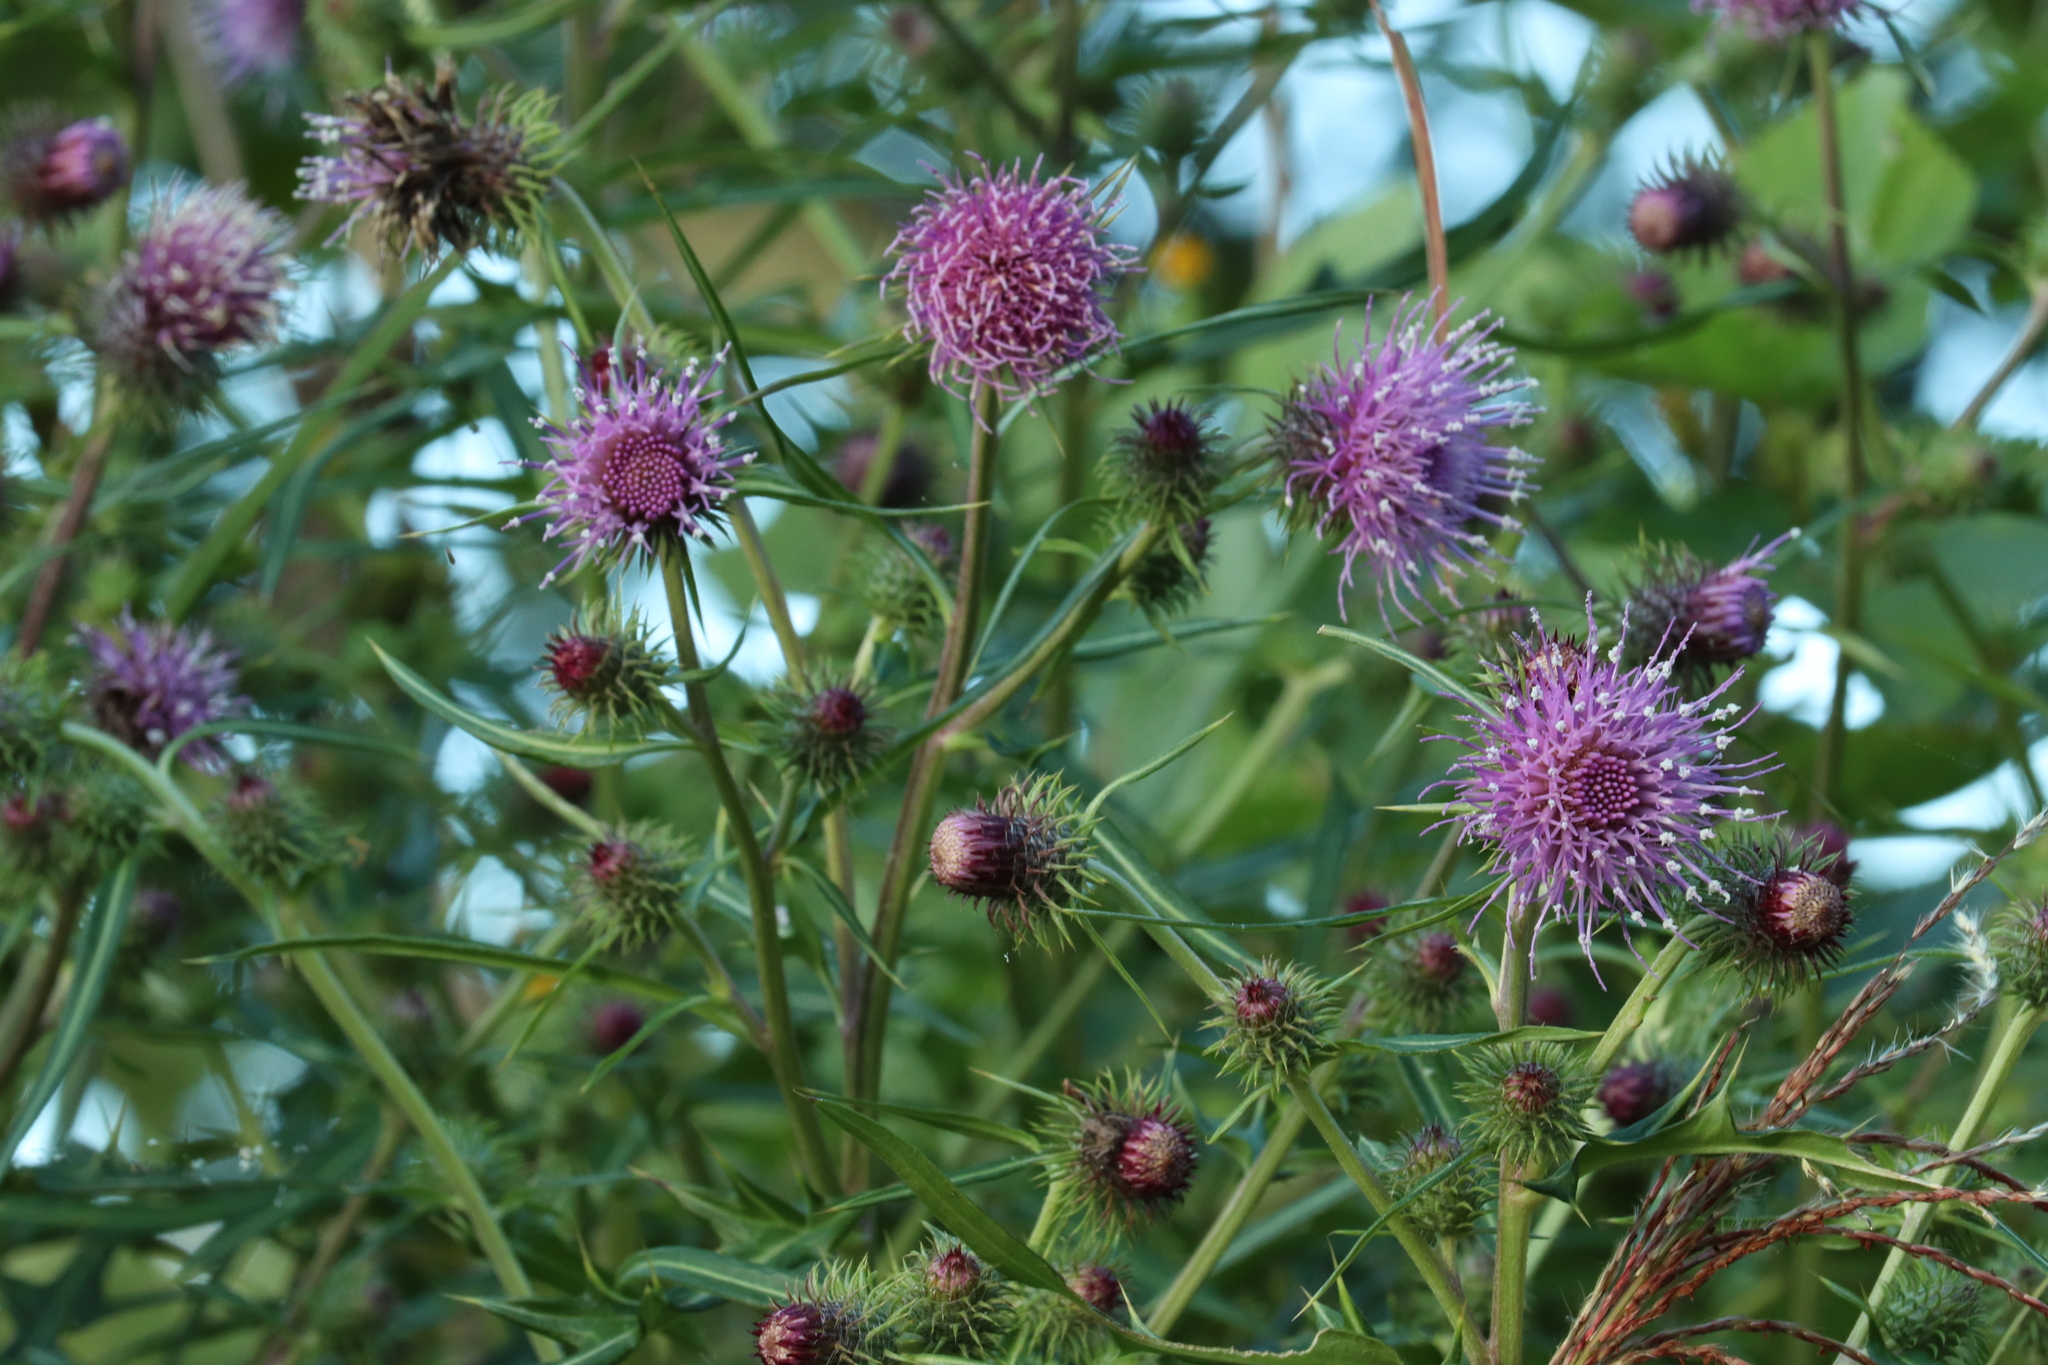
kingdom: Plantae
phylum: Tracheophyta
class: Magnoliopsida
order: Asterales
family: Asteraceae
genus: Cirsium
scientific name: Cirsium nipponicum
